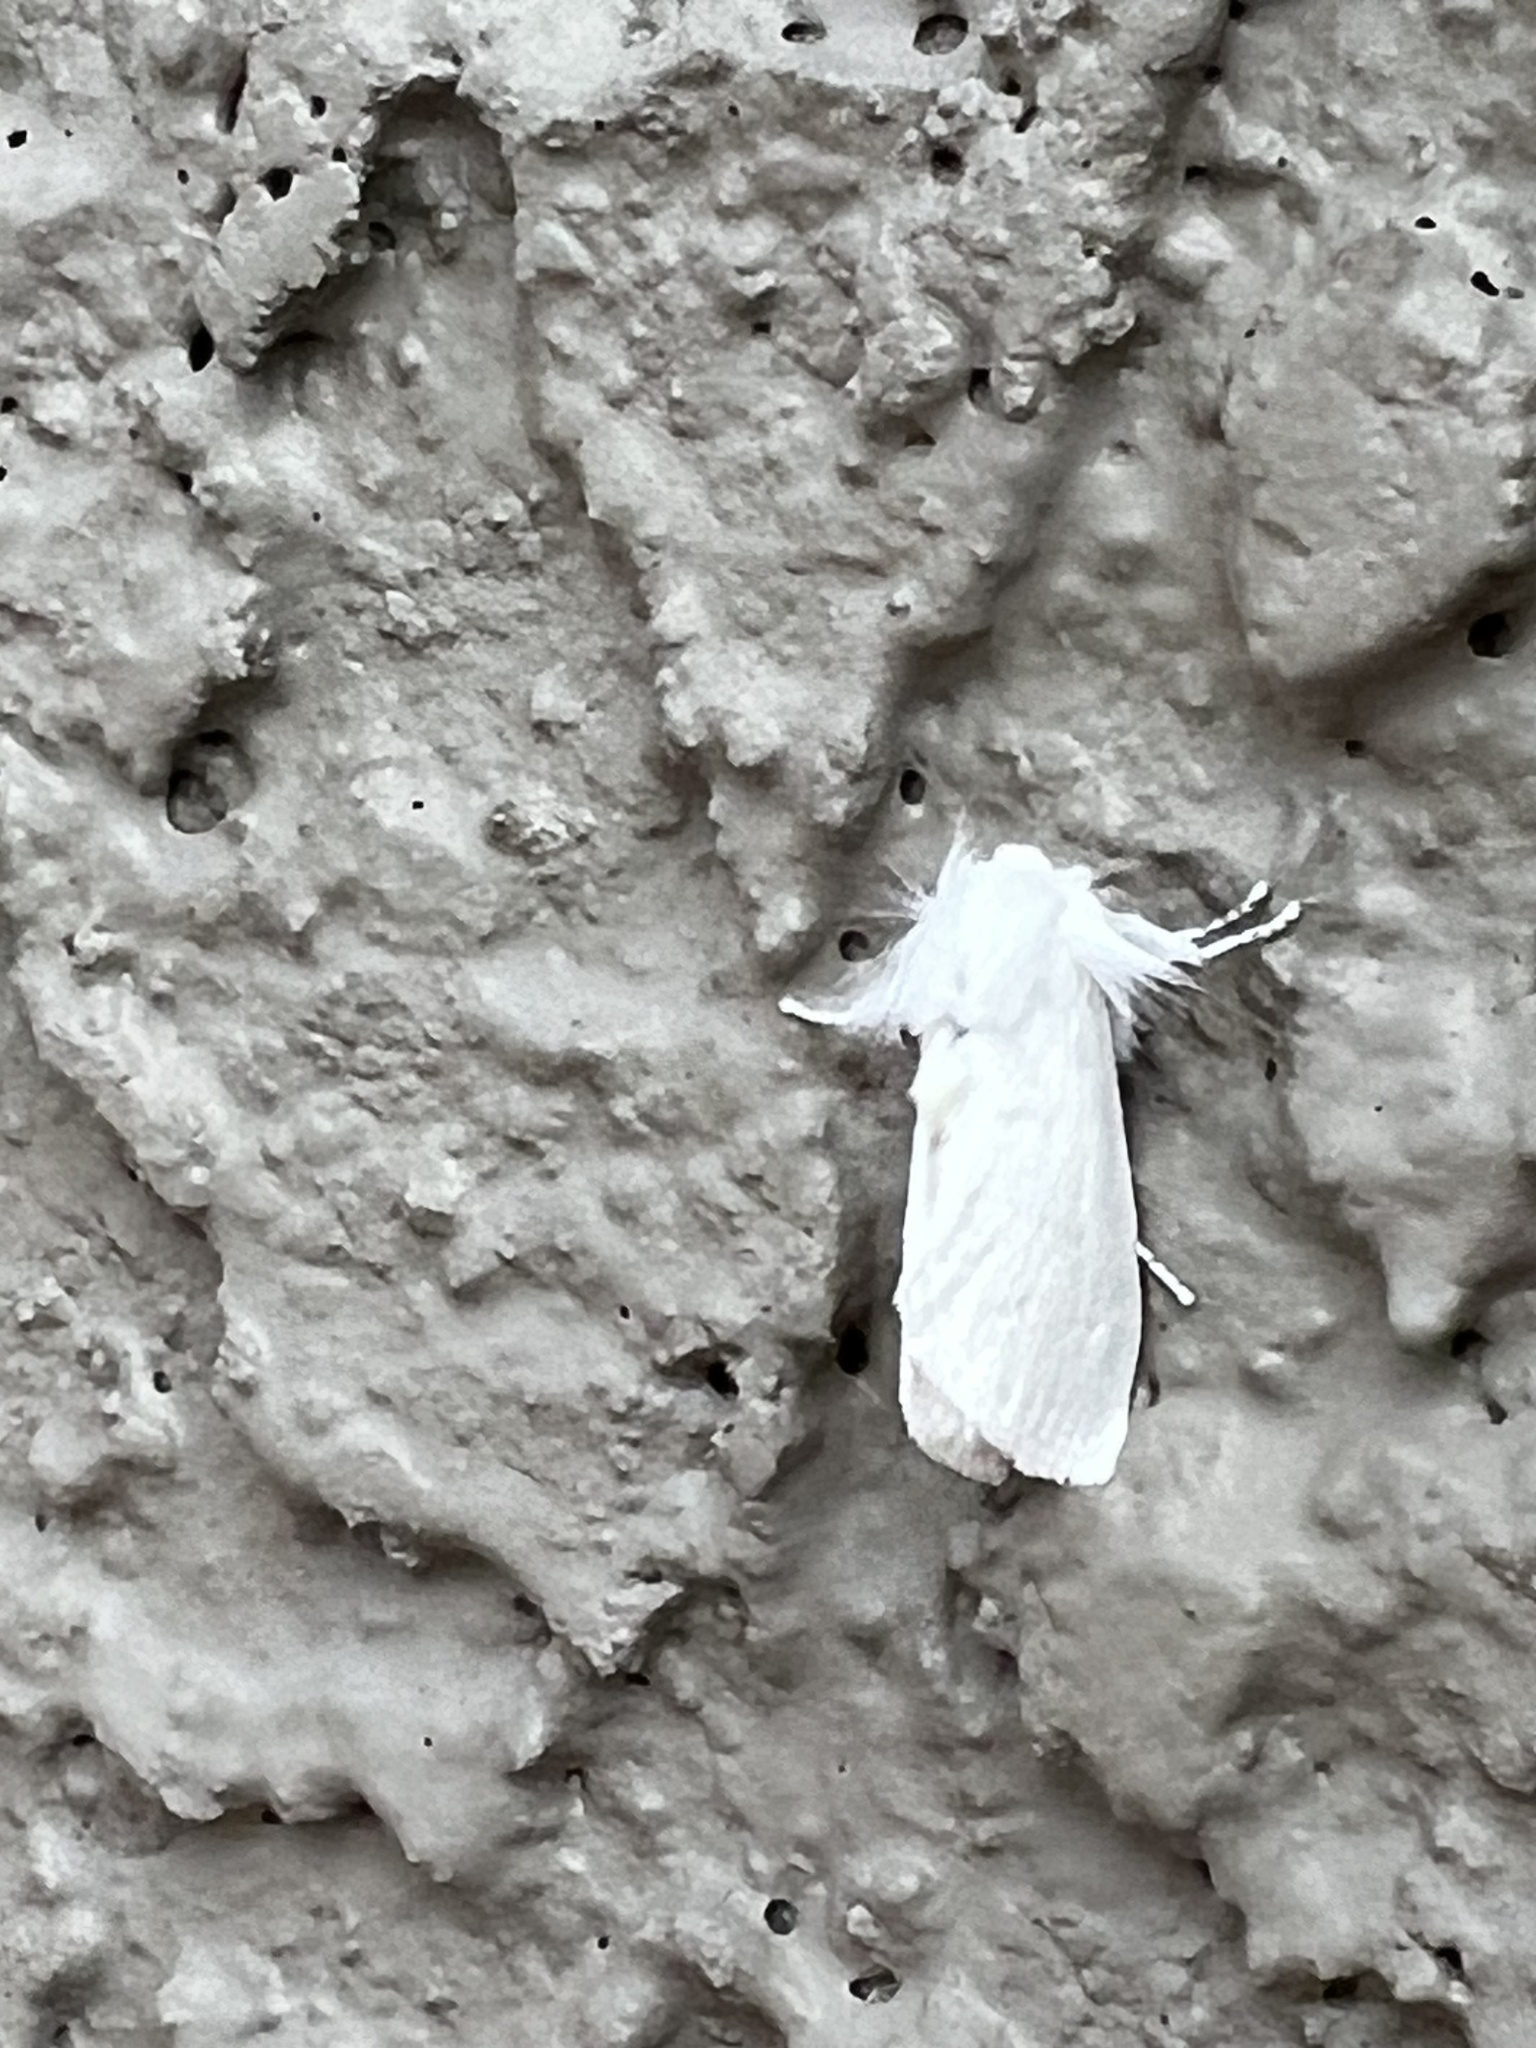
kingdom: Animalia
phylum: Arthropoda
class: Insecta
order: Lepidoptera
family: Megalopygidae
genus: Norape
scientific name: Norape sorpresa
